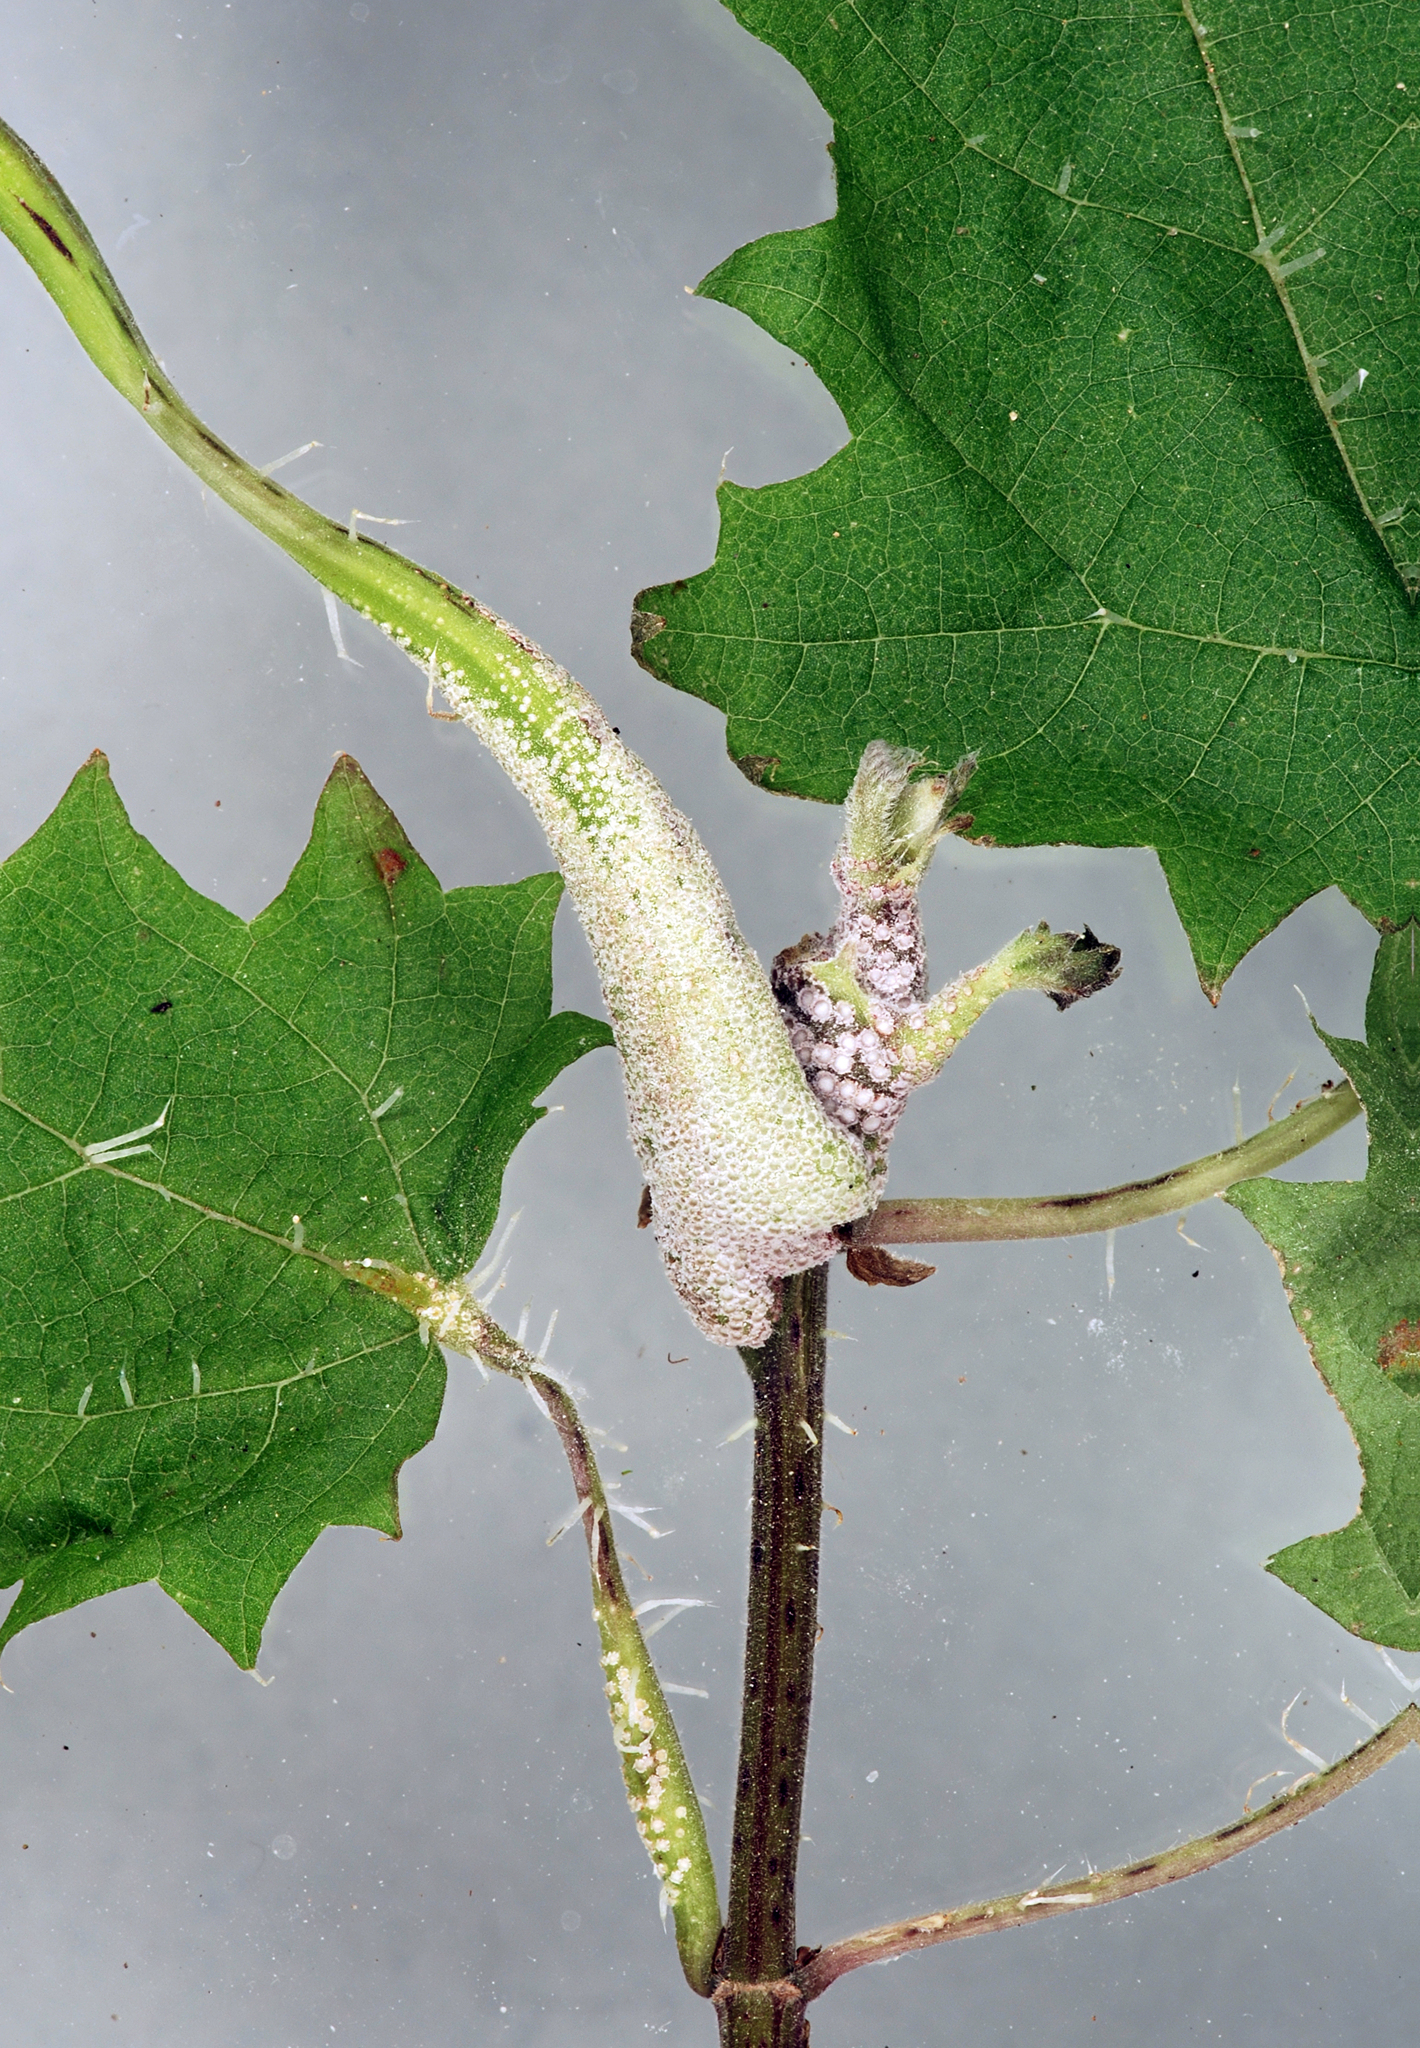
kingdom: Fungi
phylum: Basidiomycota
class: Pucciniomycetes
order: Pucciniales
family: Pucciniaceae
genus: Puccinia
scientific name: Puccinia urticata
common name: Nettle clustercup rust fungus
